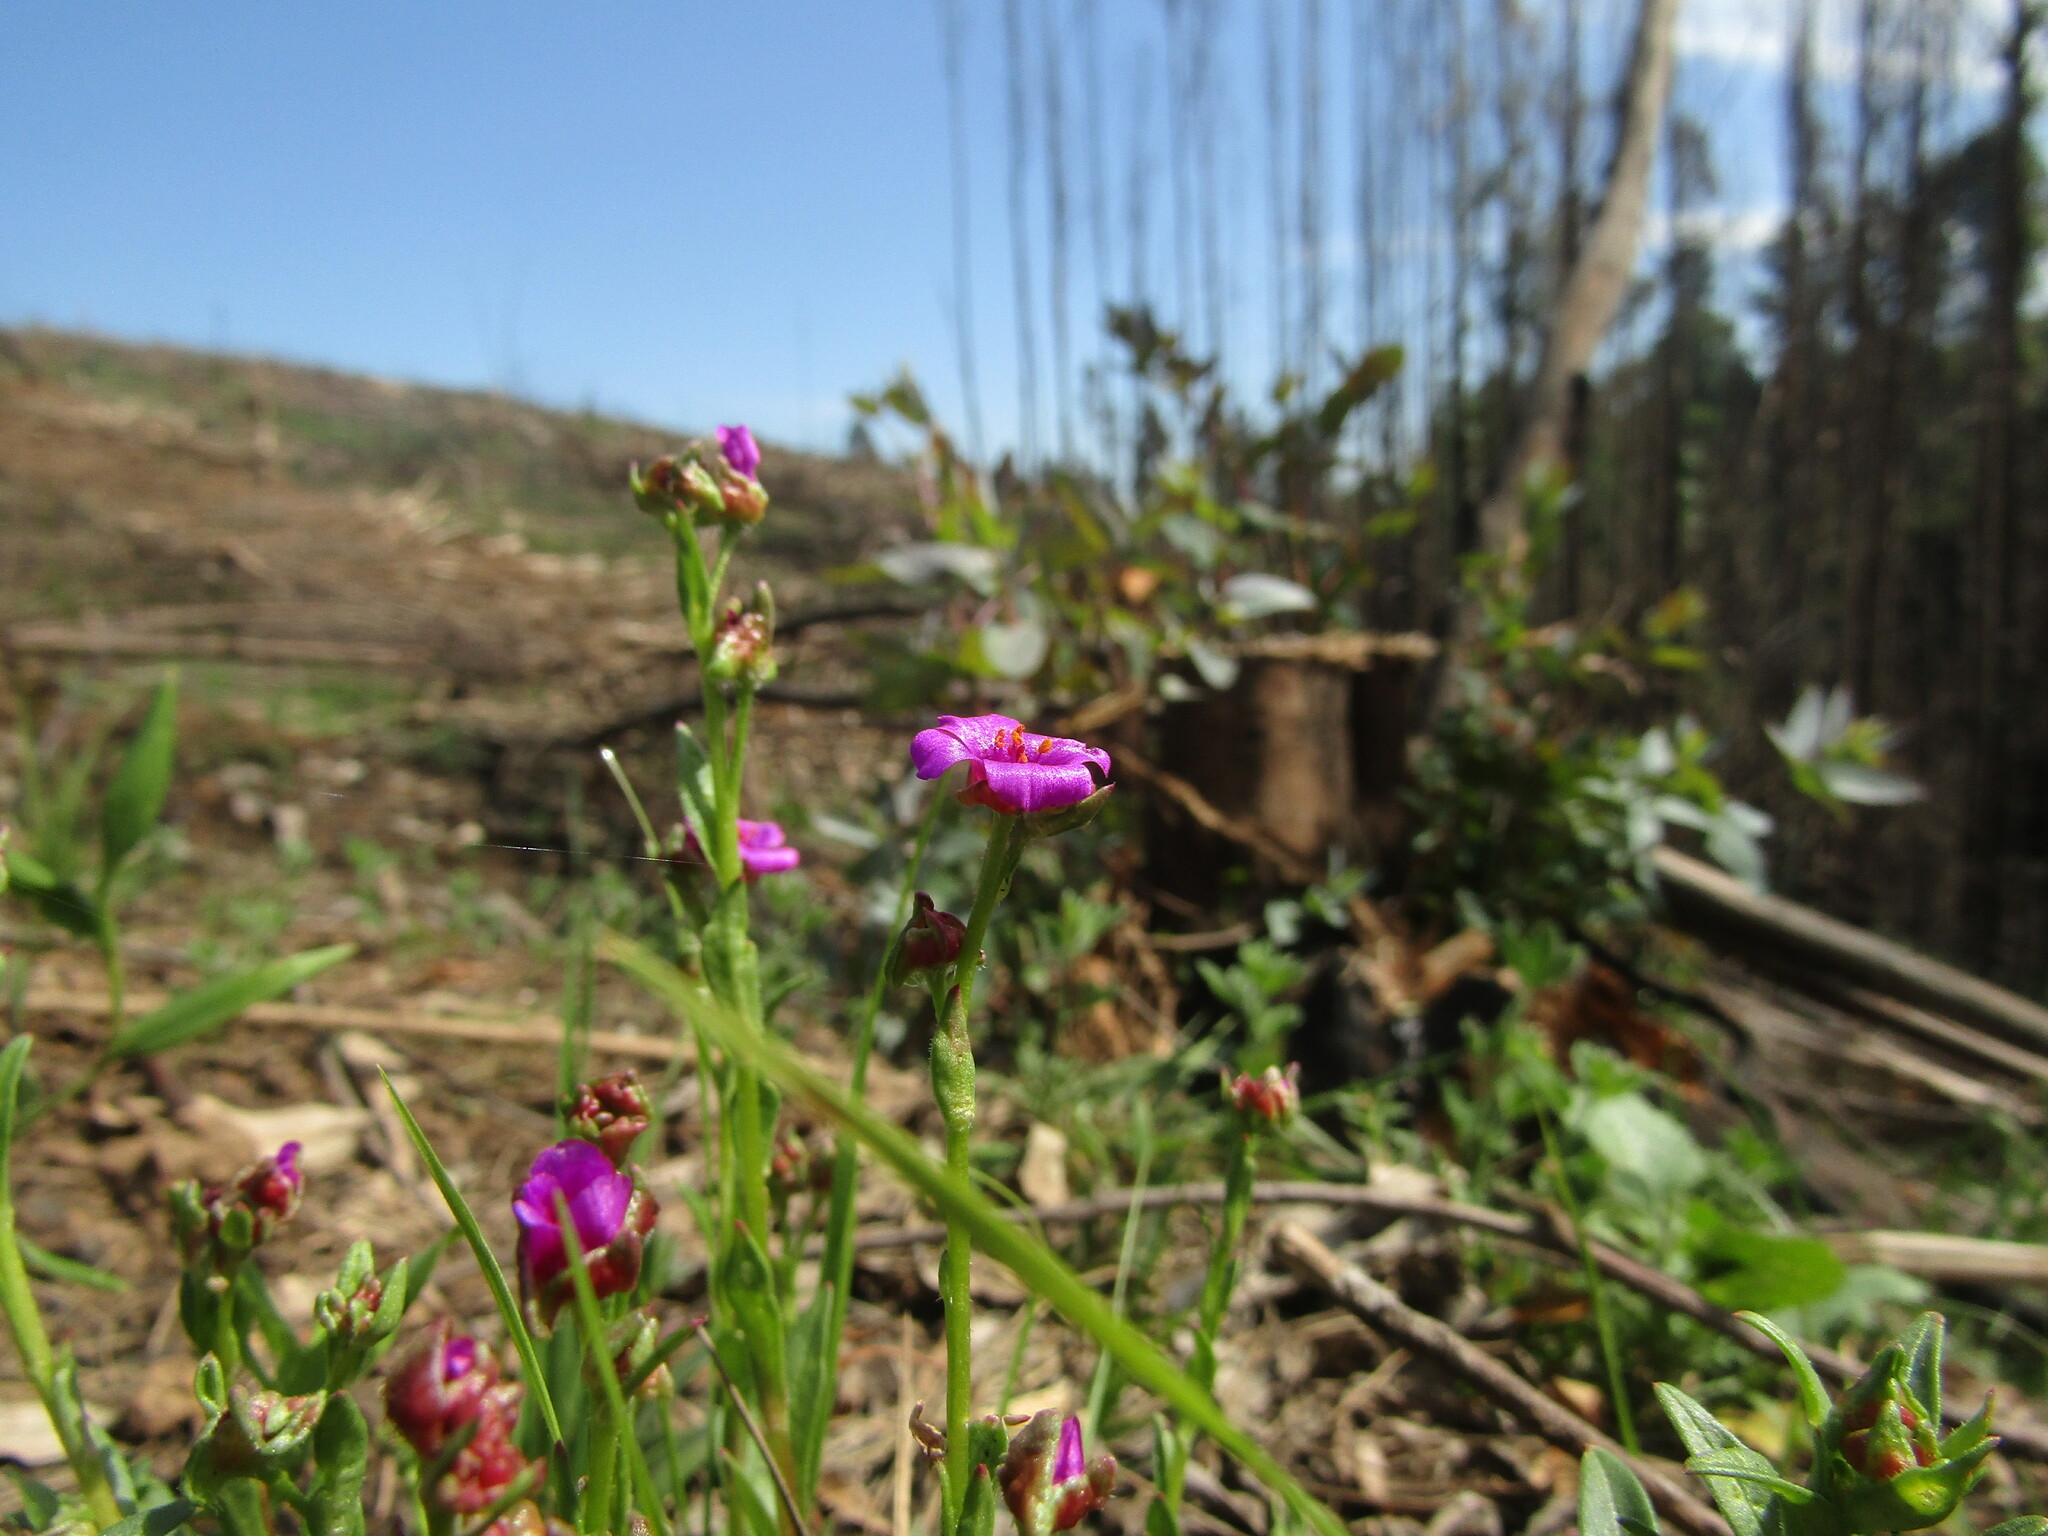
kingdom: Plantae
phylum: Tracheophyta
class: Magnoliopsida
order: Caryophyllales
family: Montiaceae
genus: Calandrinia
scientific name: Calandrinia pilosiuscula
